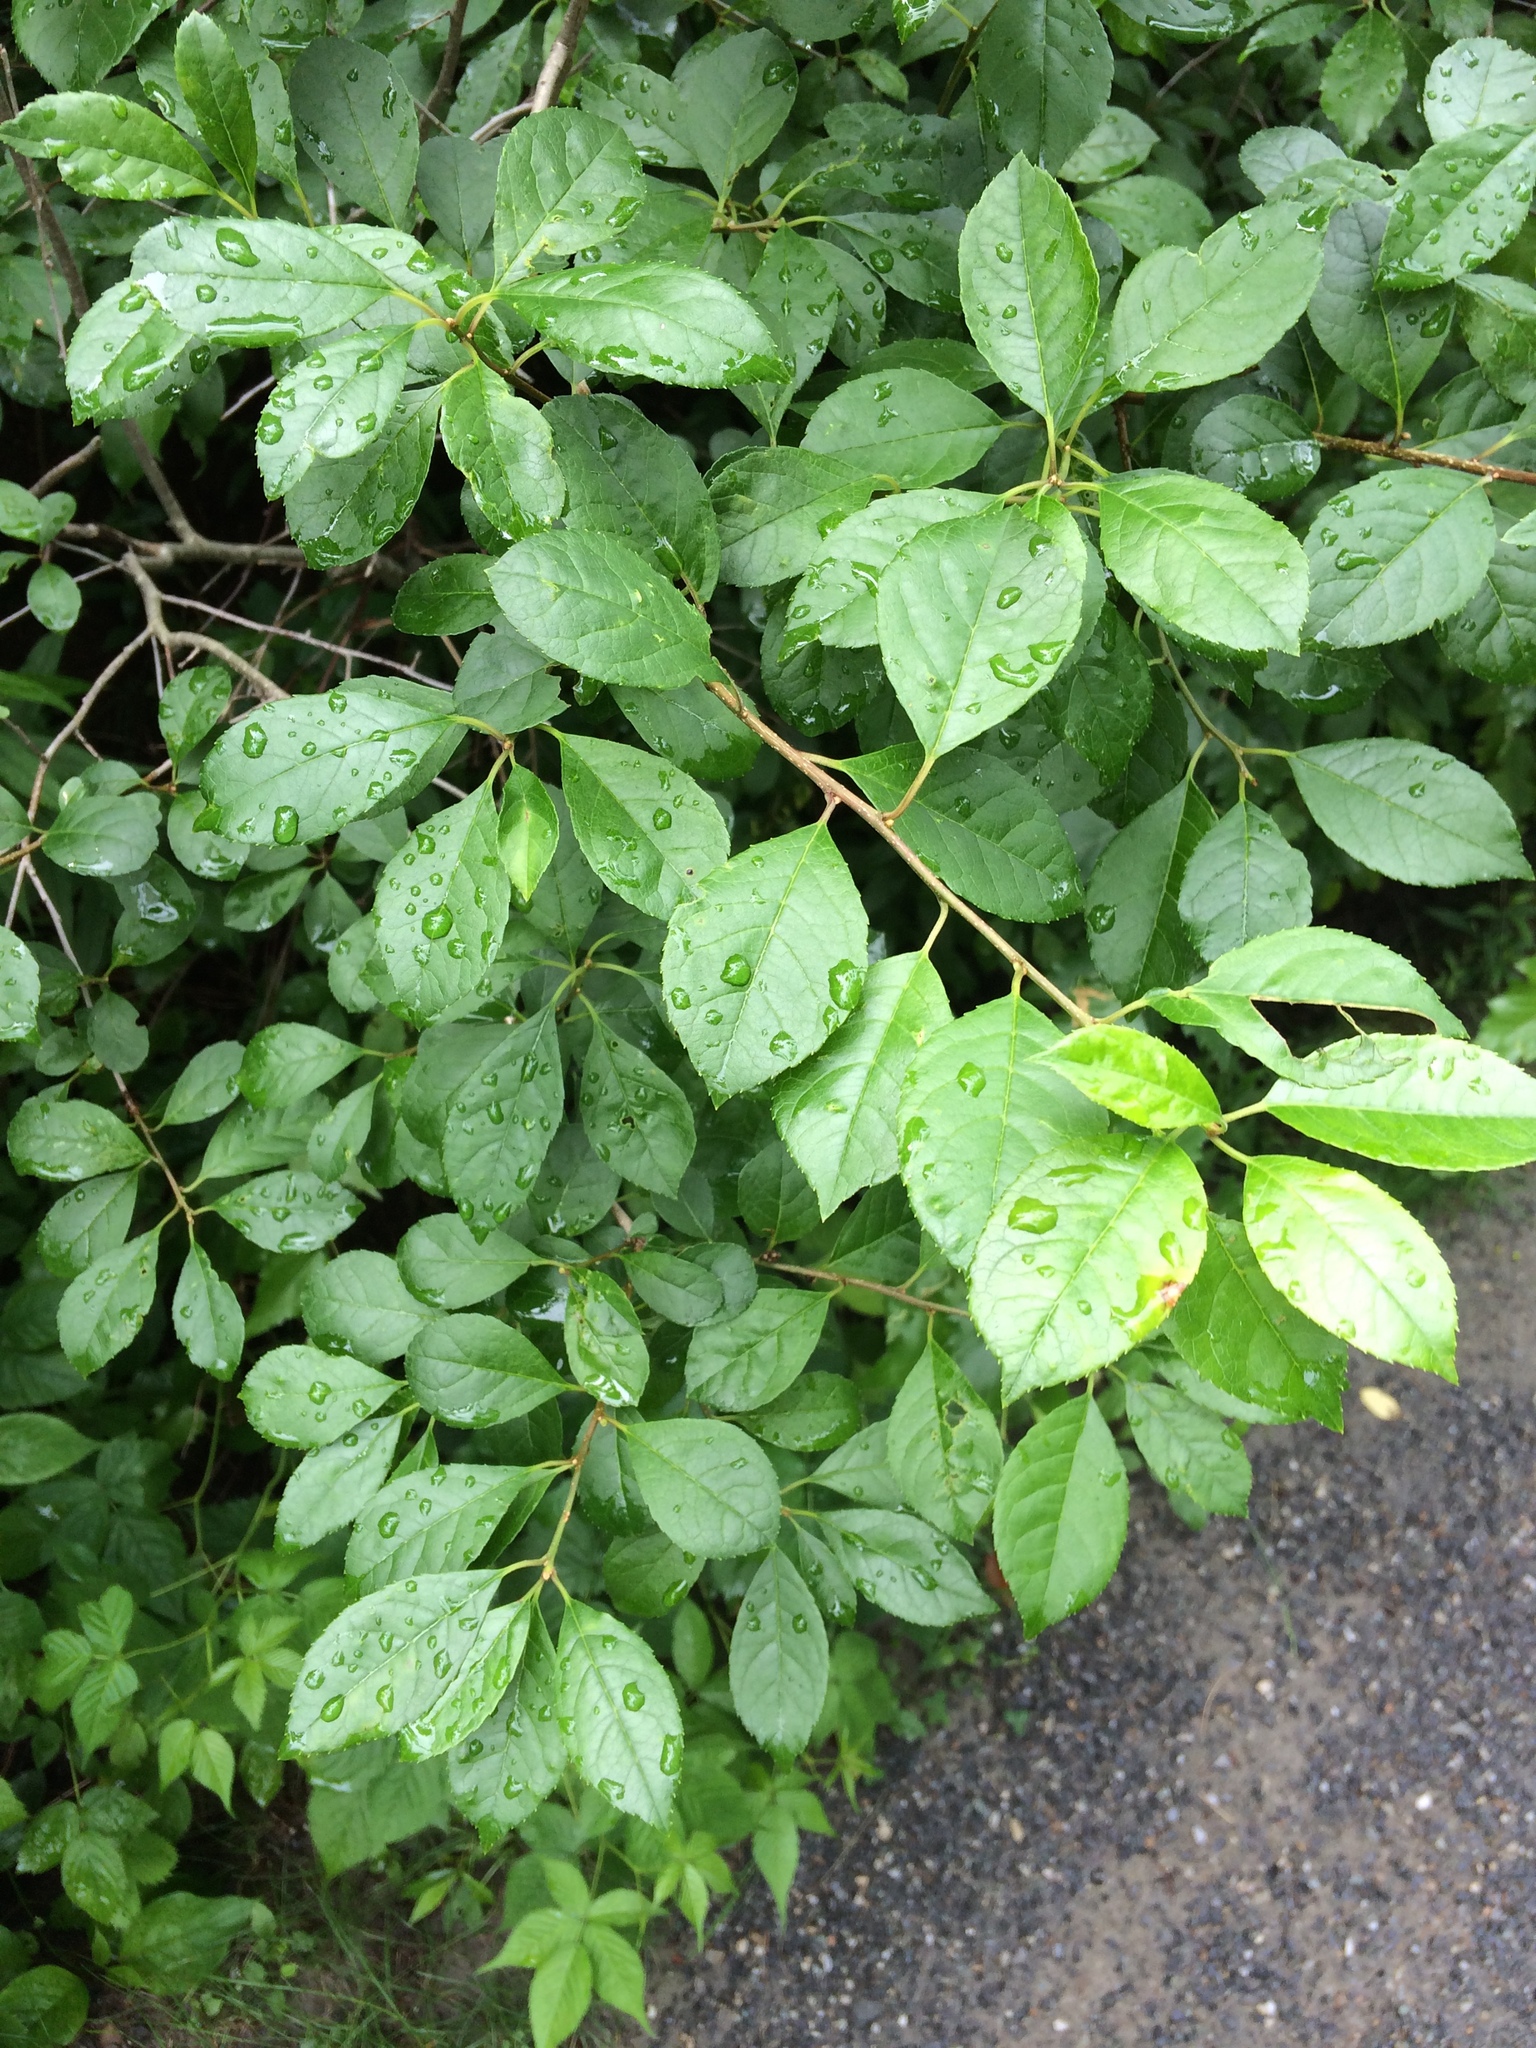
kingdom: Plantae
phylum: Tracheophyta
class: Magnoliopsida
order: Aquifoliales
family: Aquifoliaceae
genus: Ilex
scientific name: Ilex verticillata
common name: Virginia winterberry
